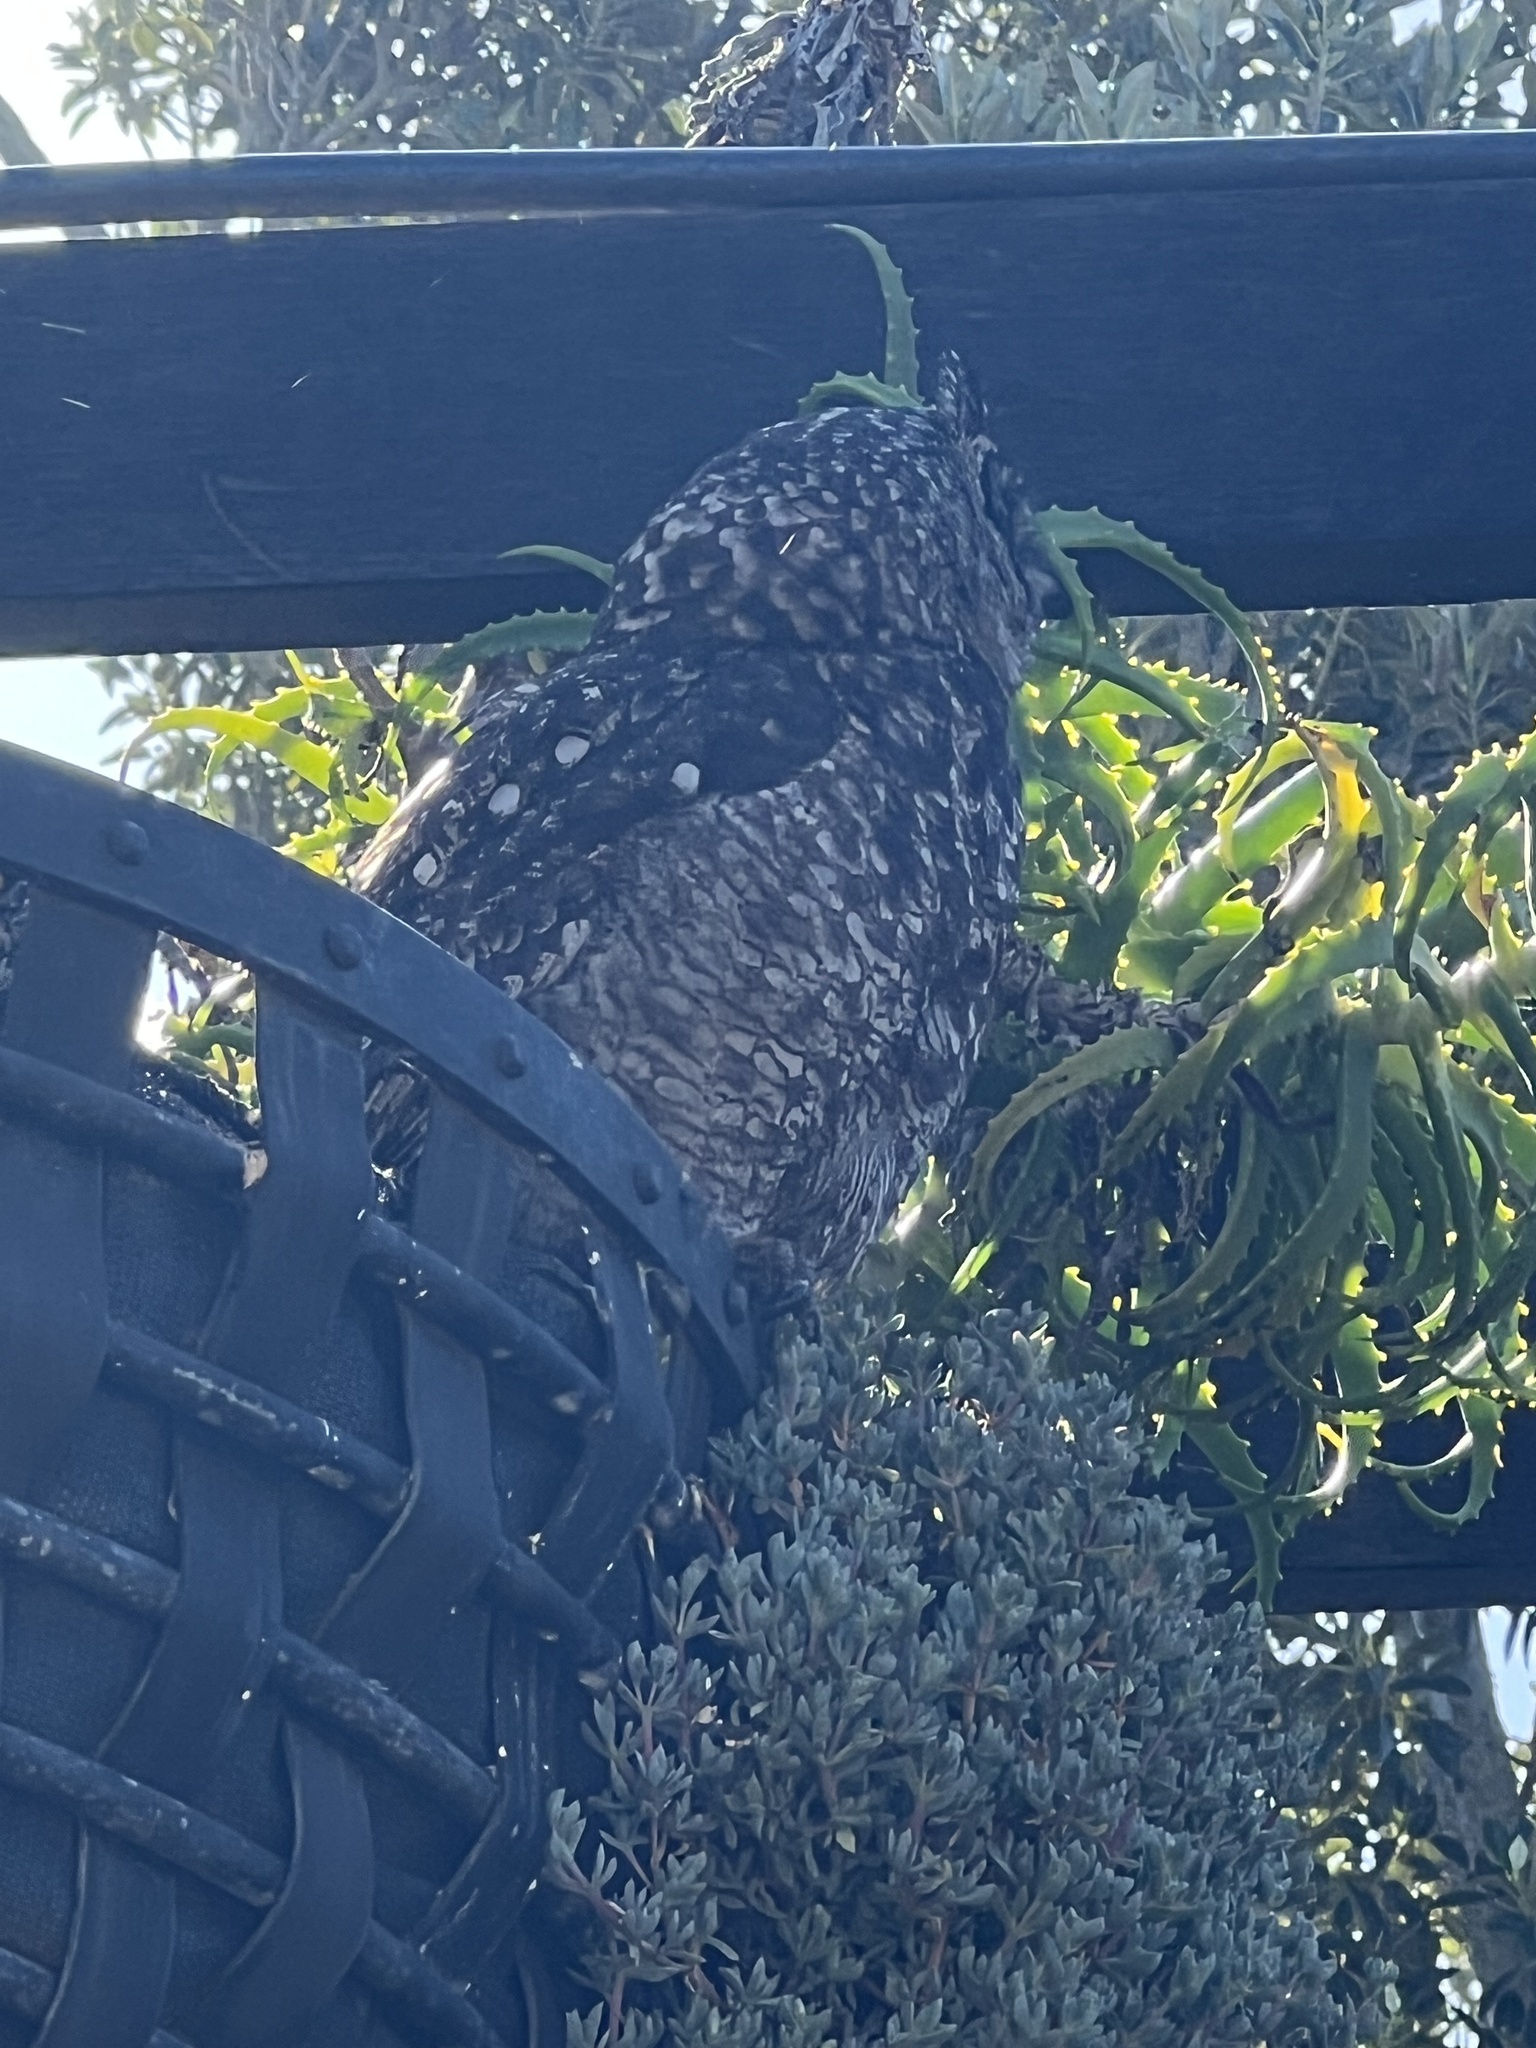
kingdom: Animalia
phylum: Chordata
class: Aves
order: Strigiformes
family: Strigidae
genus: Bubo
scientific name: Bubo africanus
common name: Spotted eagle-owl
